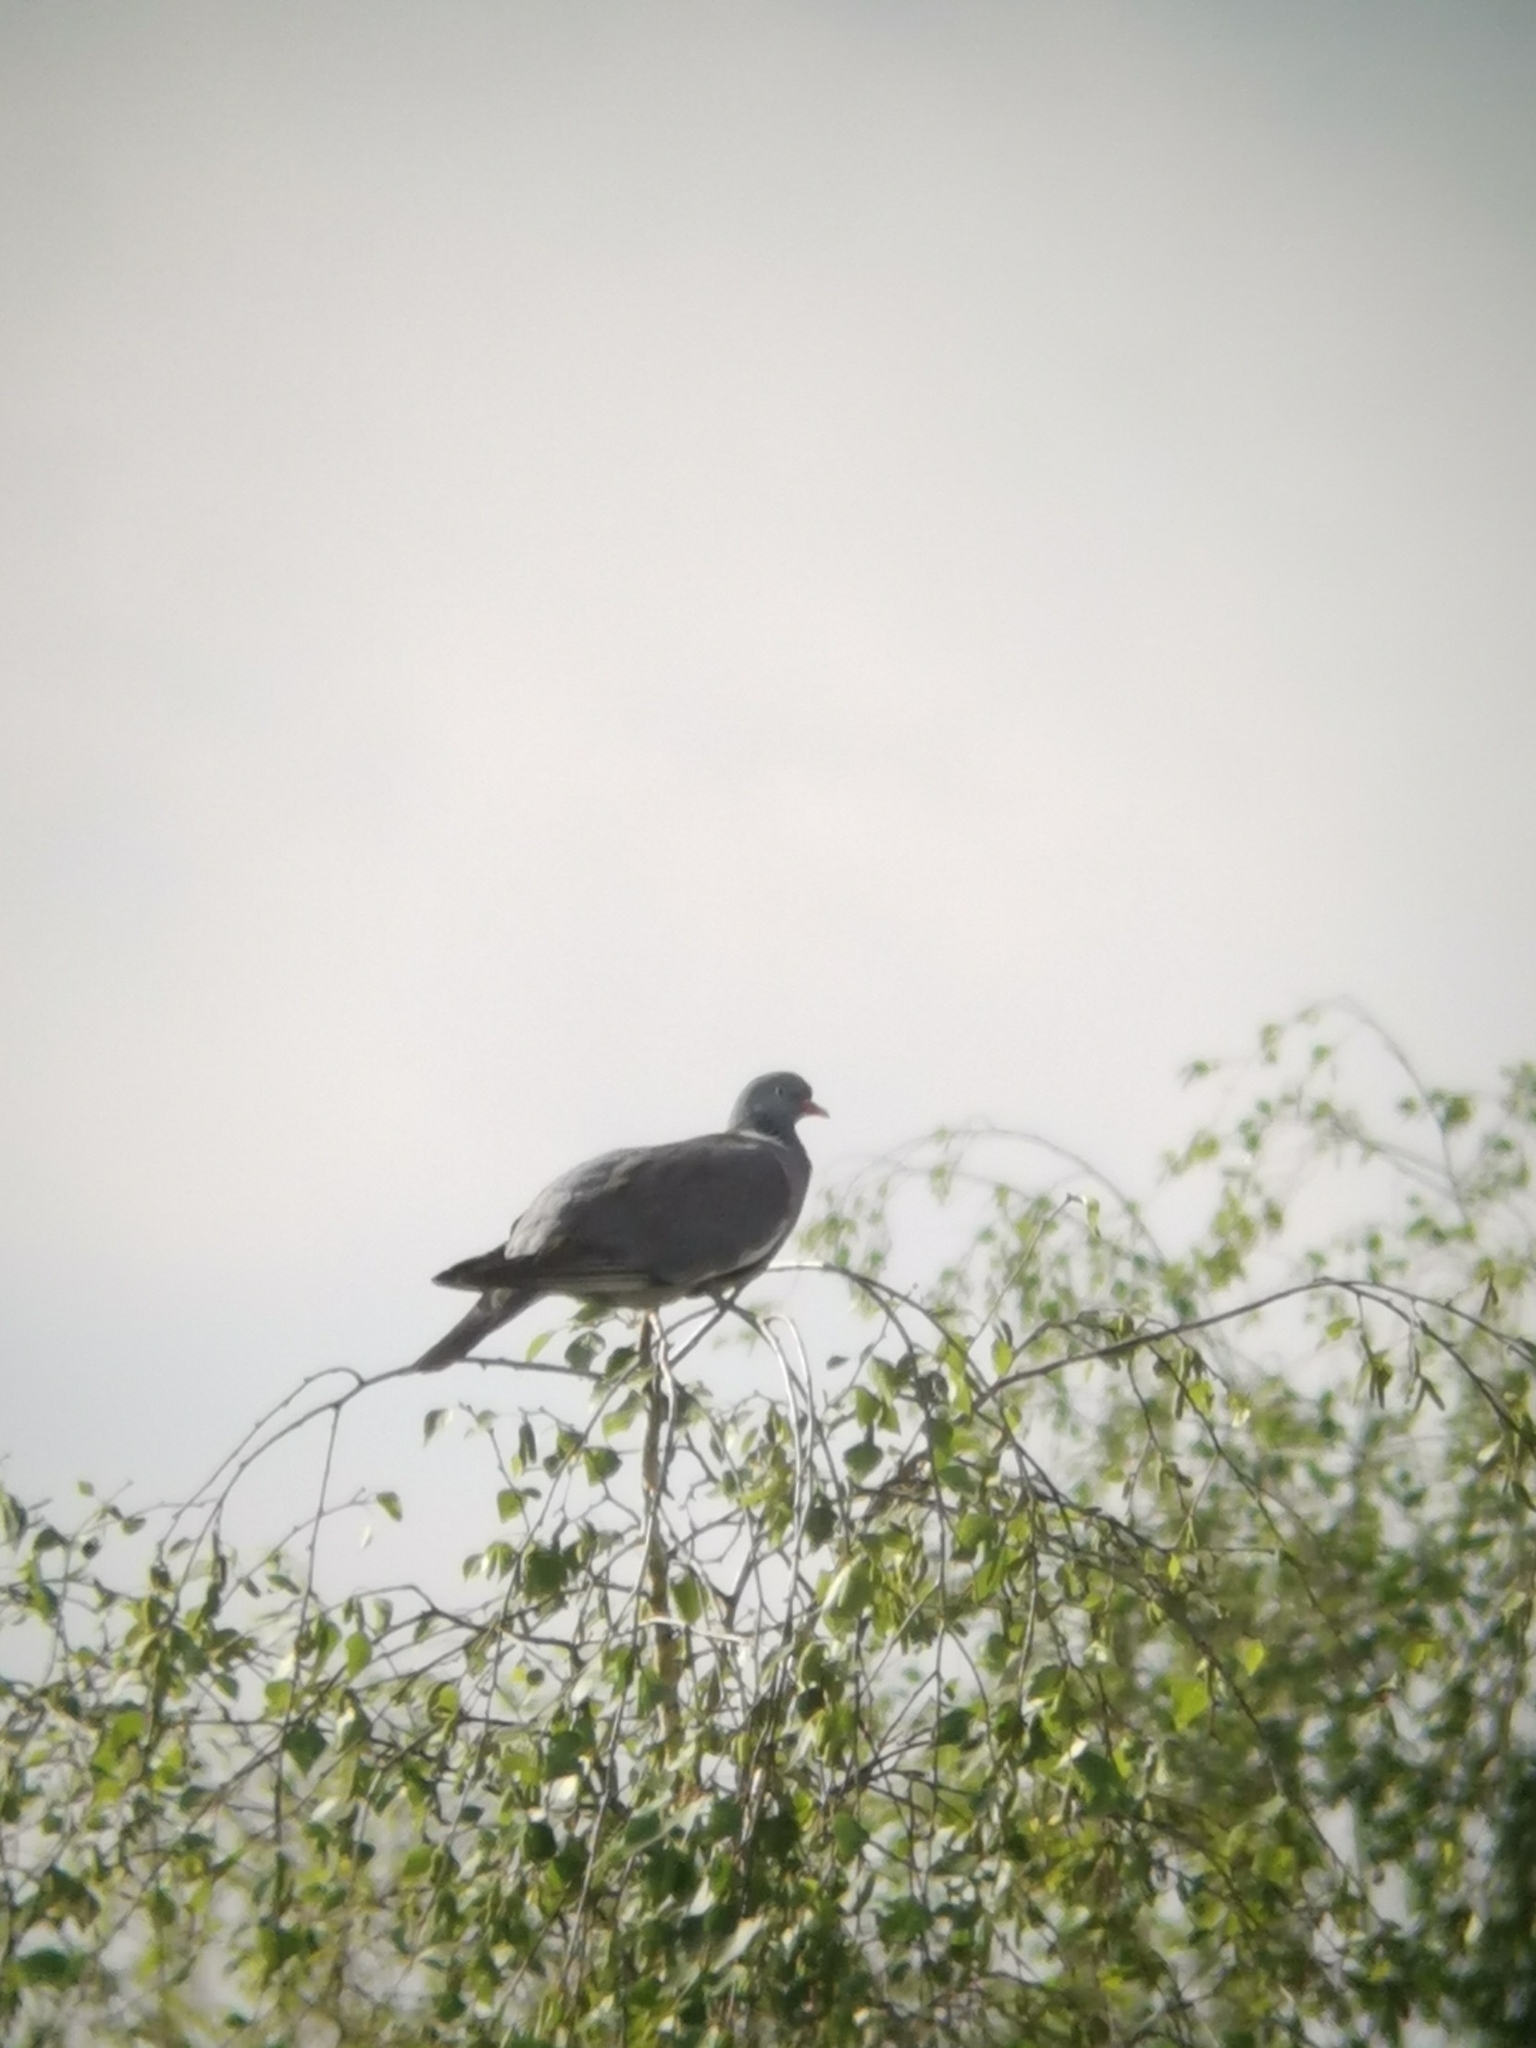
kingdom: Animalia
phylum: Chordata
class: Aves
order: Columbiformes
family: Columbidae
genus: Columba
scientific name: Columba palumbus
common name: Common wood pigeon
